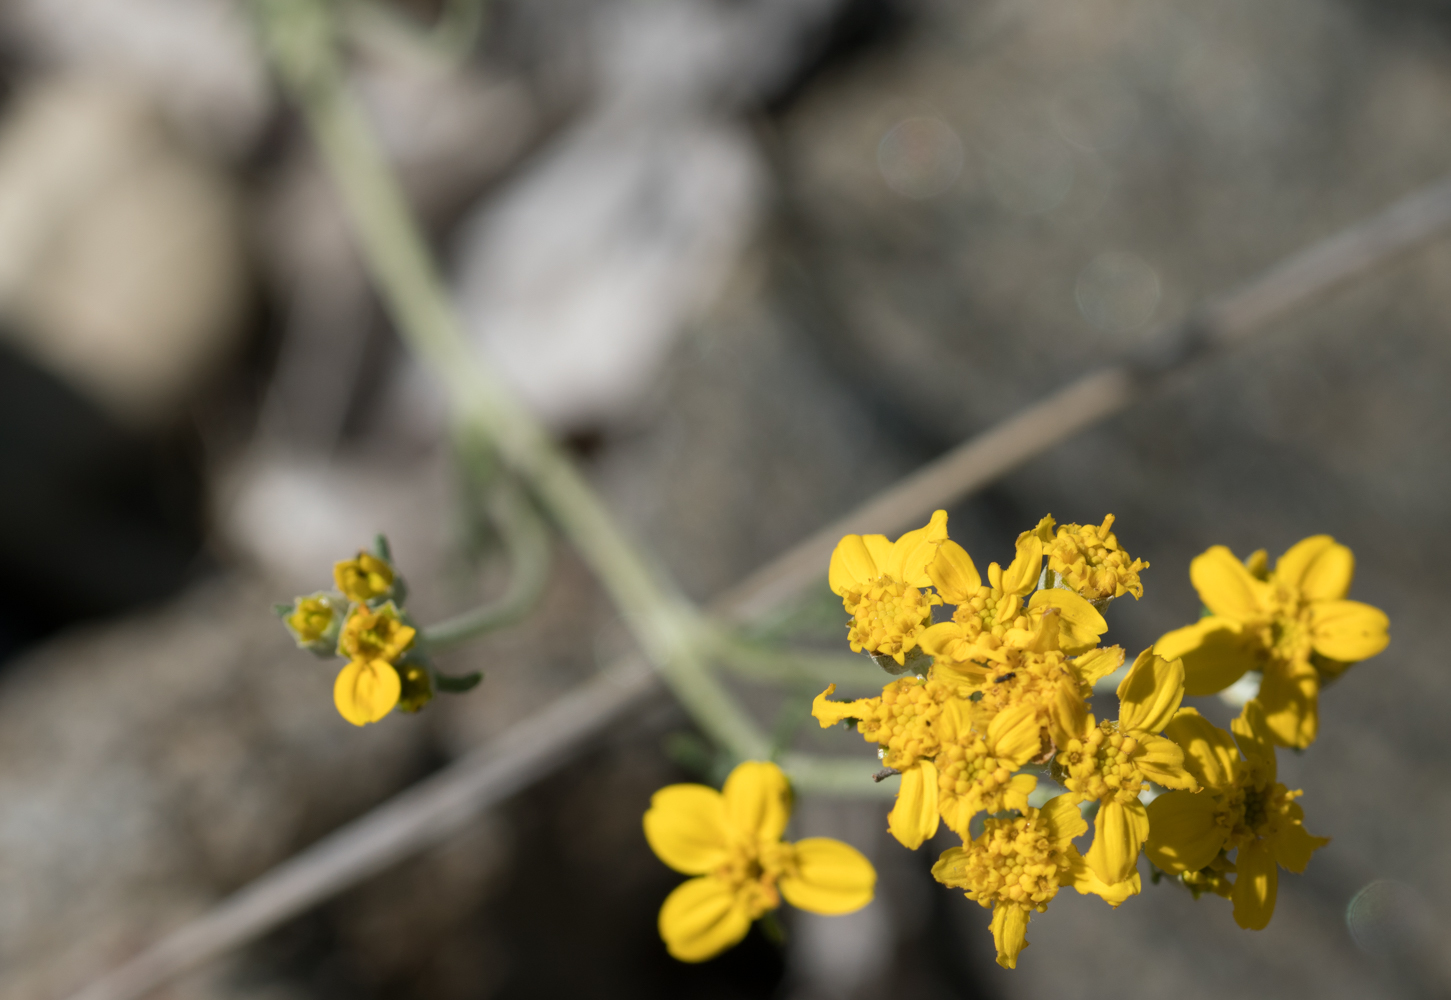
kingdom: Plantae
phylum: Tracheophyta
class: Magnoliopsida
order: Asterales
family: Asteraceae
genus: Eriophyllum
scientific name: Eriophyllum confertiflorum
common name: Golden-yarrow
